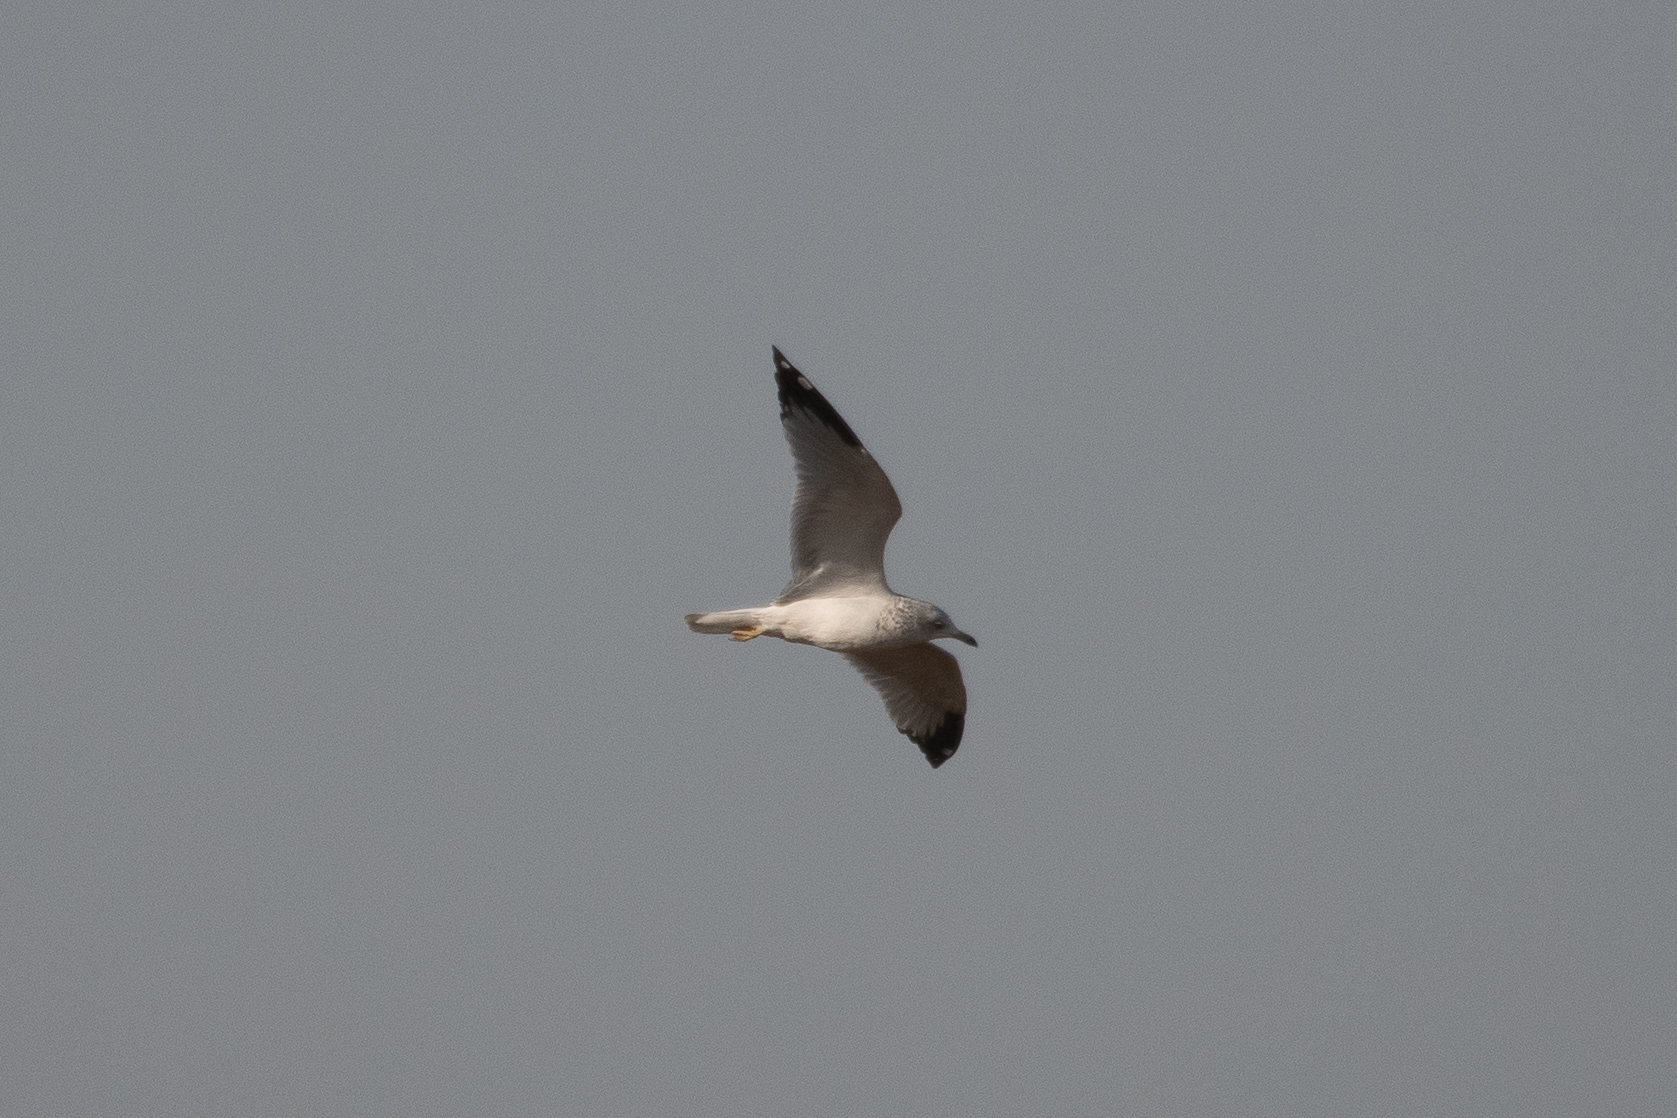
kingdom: Animalia
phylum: Chordata
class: Aves
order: Charadriiformes
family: Laridae
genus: Larus
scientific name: Larus delawarensis
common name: Ring-billed gull
